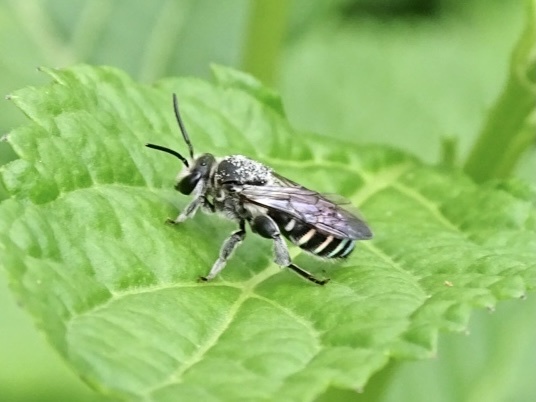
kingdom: Animalia
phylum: Arthropoda
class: Insecta
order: Hymenoptera
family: Halictidae
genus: Nomia
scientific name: Nomia incerta
